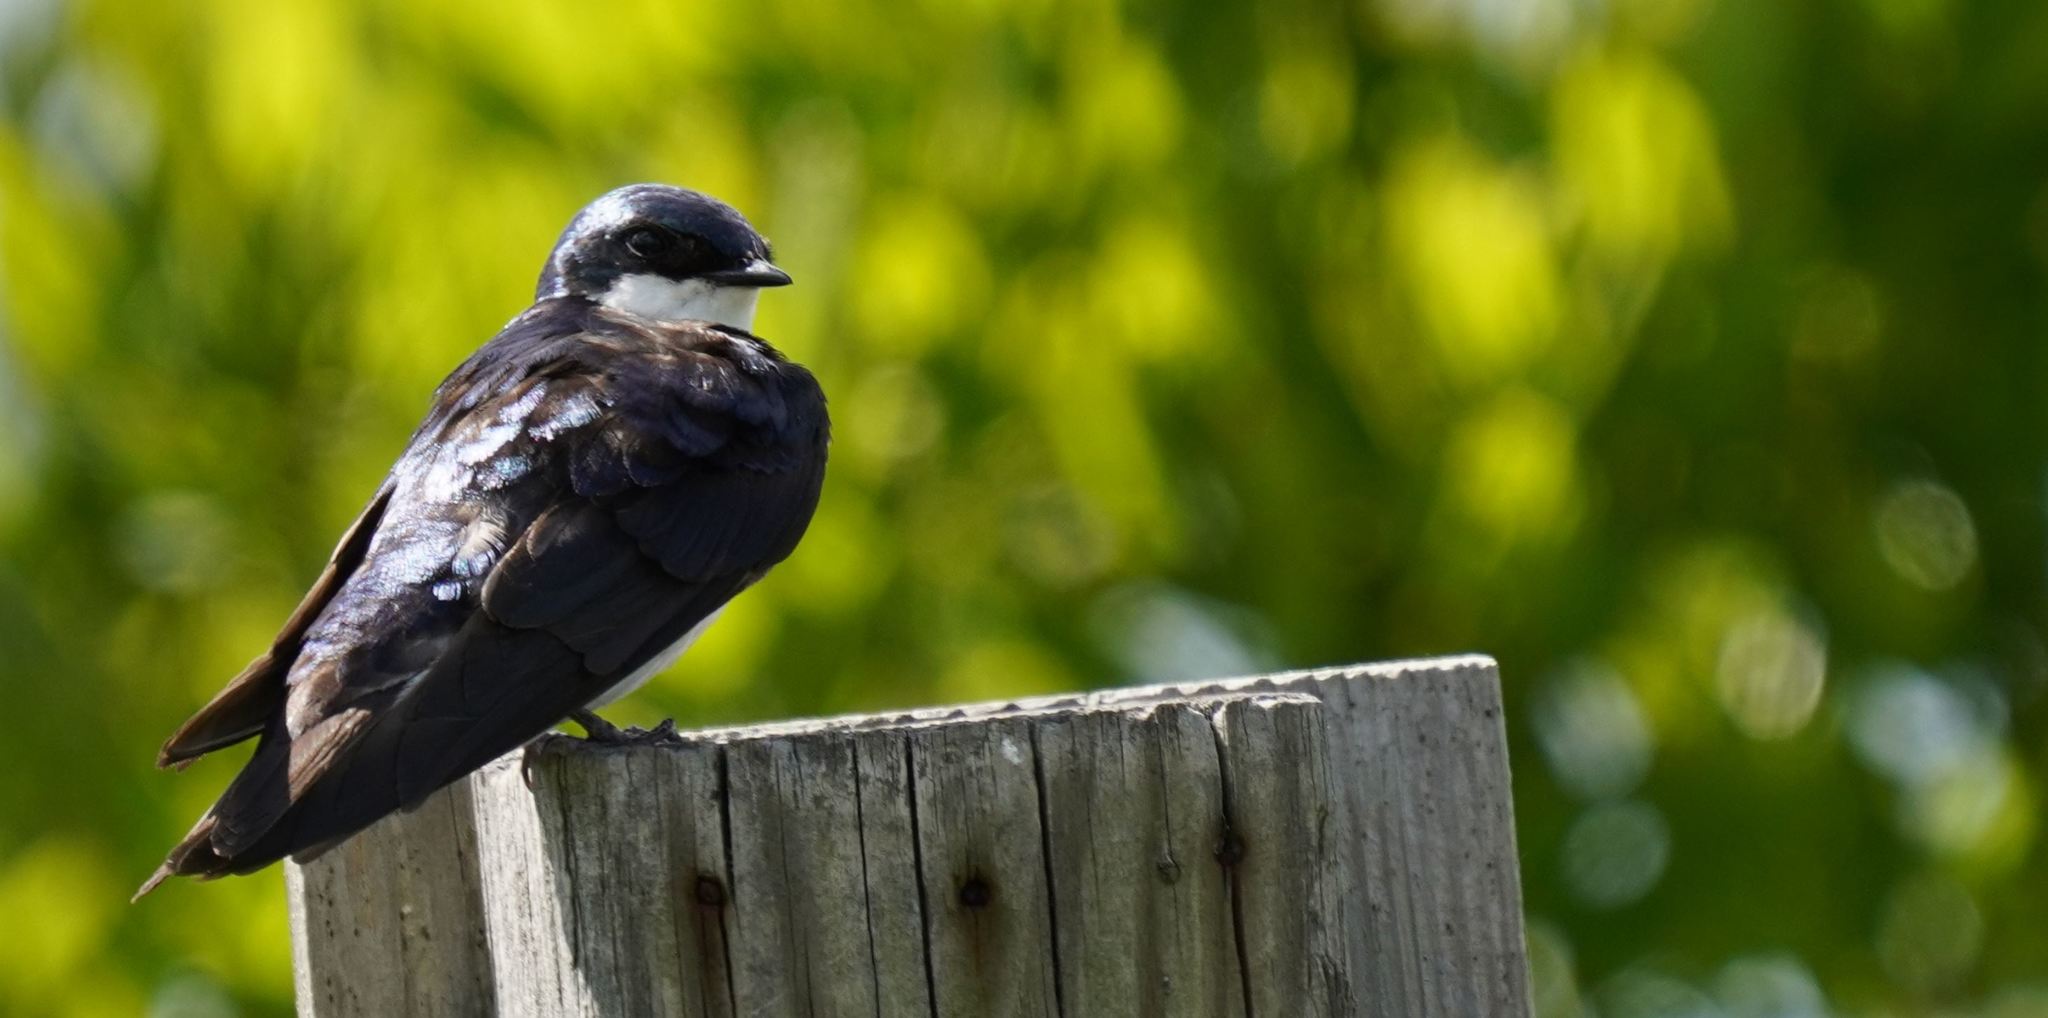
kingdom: Animalia
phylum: Chordata
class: Aves
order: Passeriformes
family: Hirundinidae
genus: Tachycineta
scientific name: Tachycineta bicolor
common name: Tree swallow
